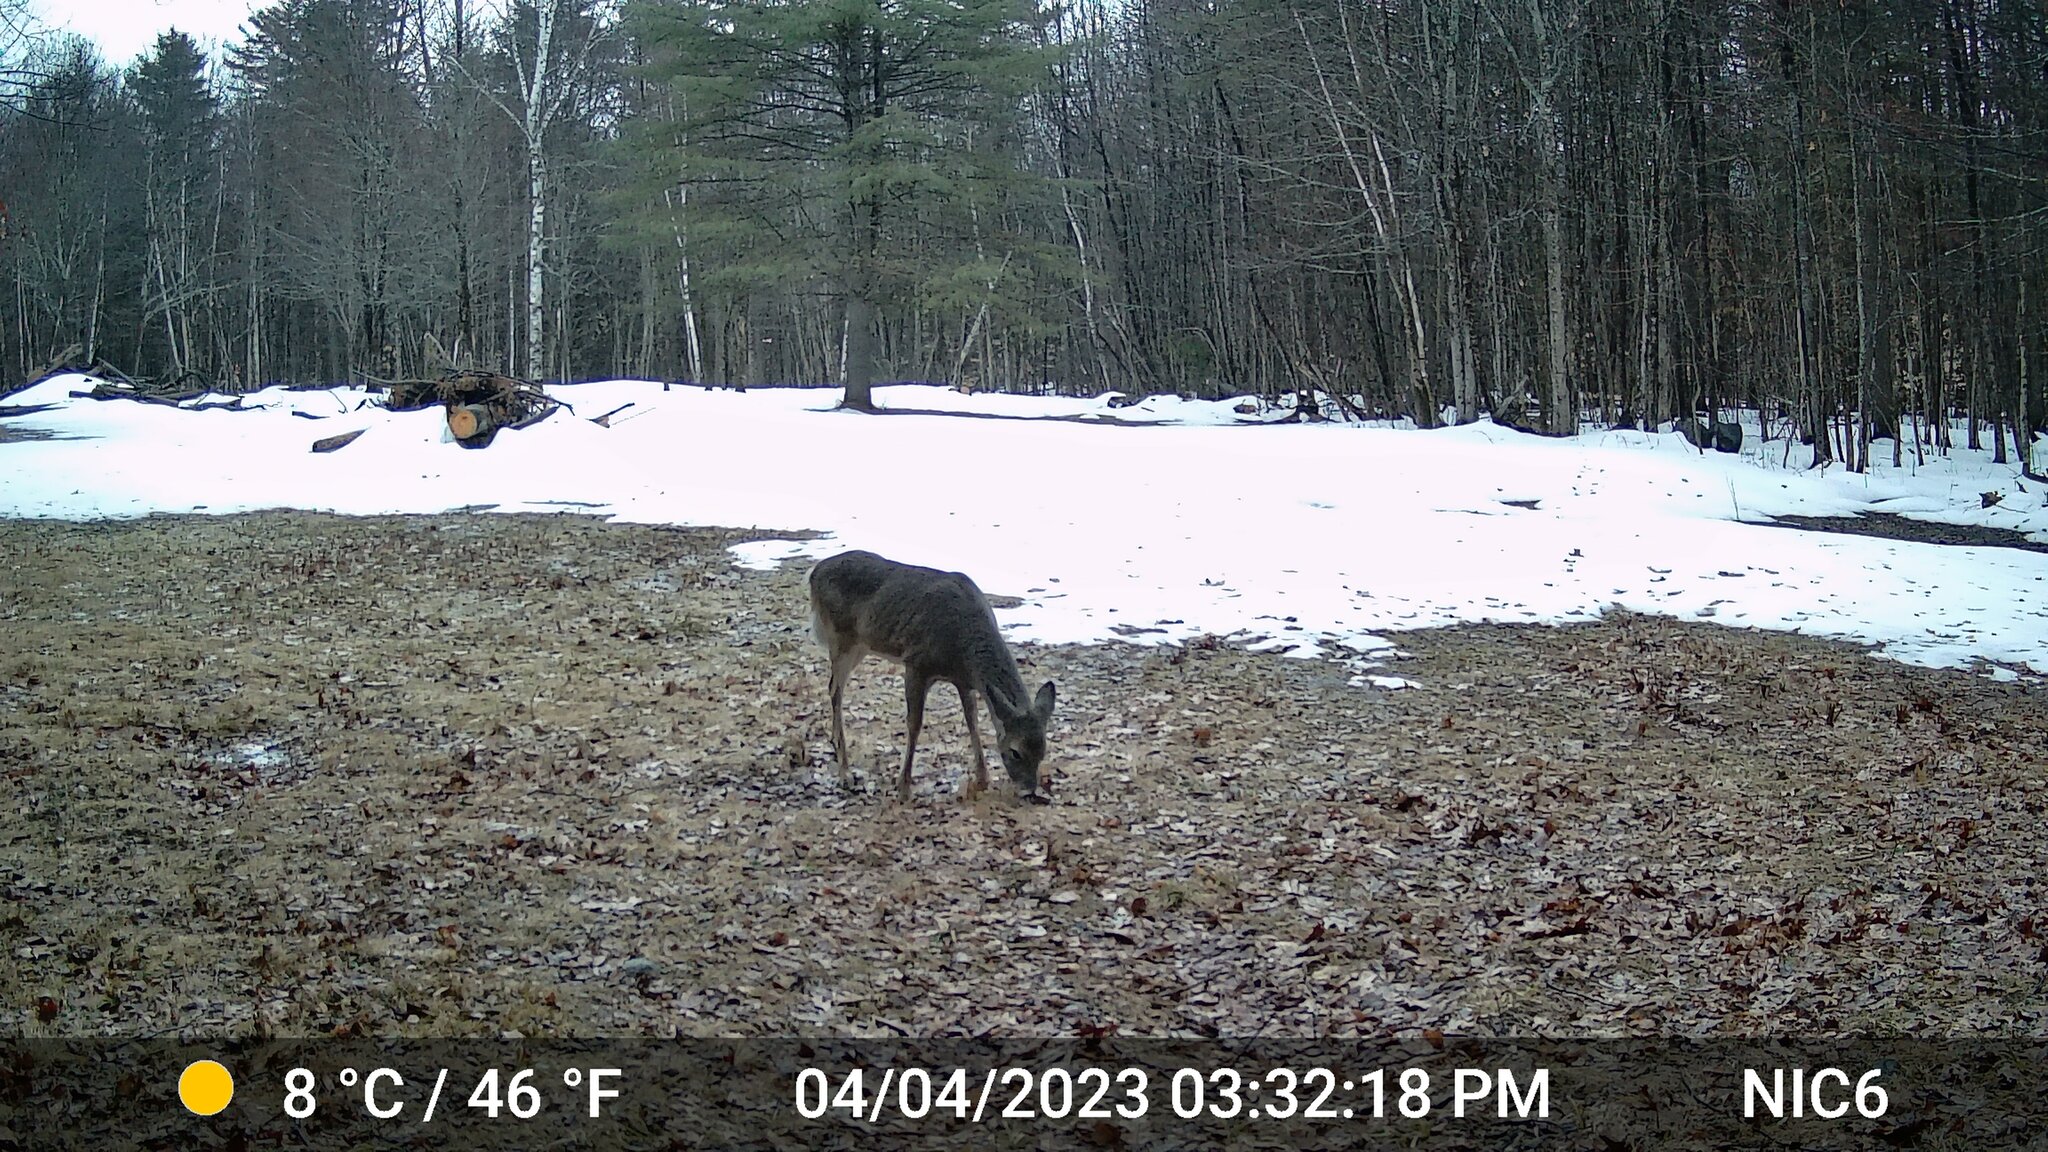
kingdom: Animalia
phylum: Chordata
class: Mammalia
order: Artiodactyla
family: Cervidae
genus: Odocoileus
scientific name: Odocoileus virginianus
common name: White-tailed deer
